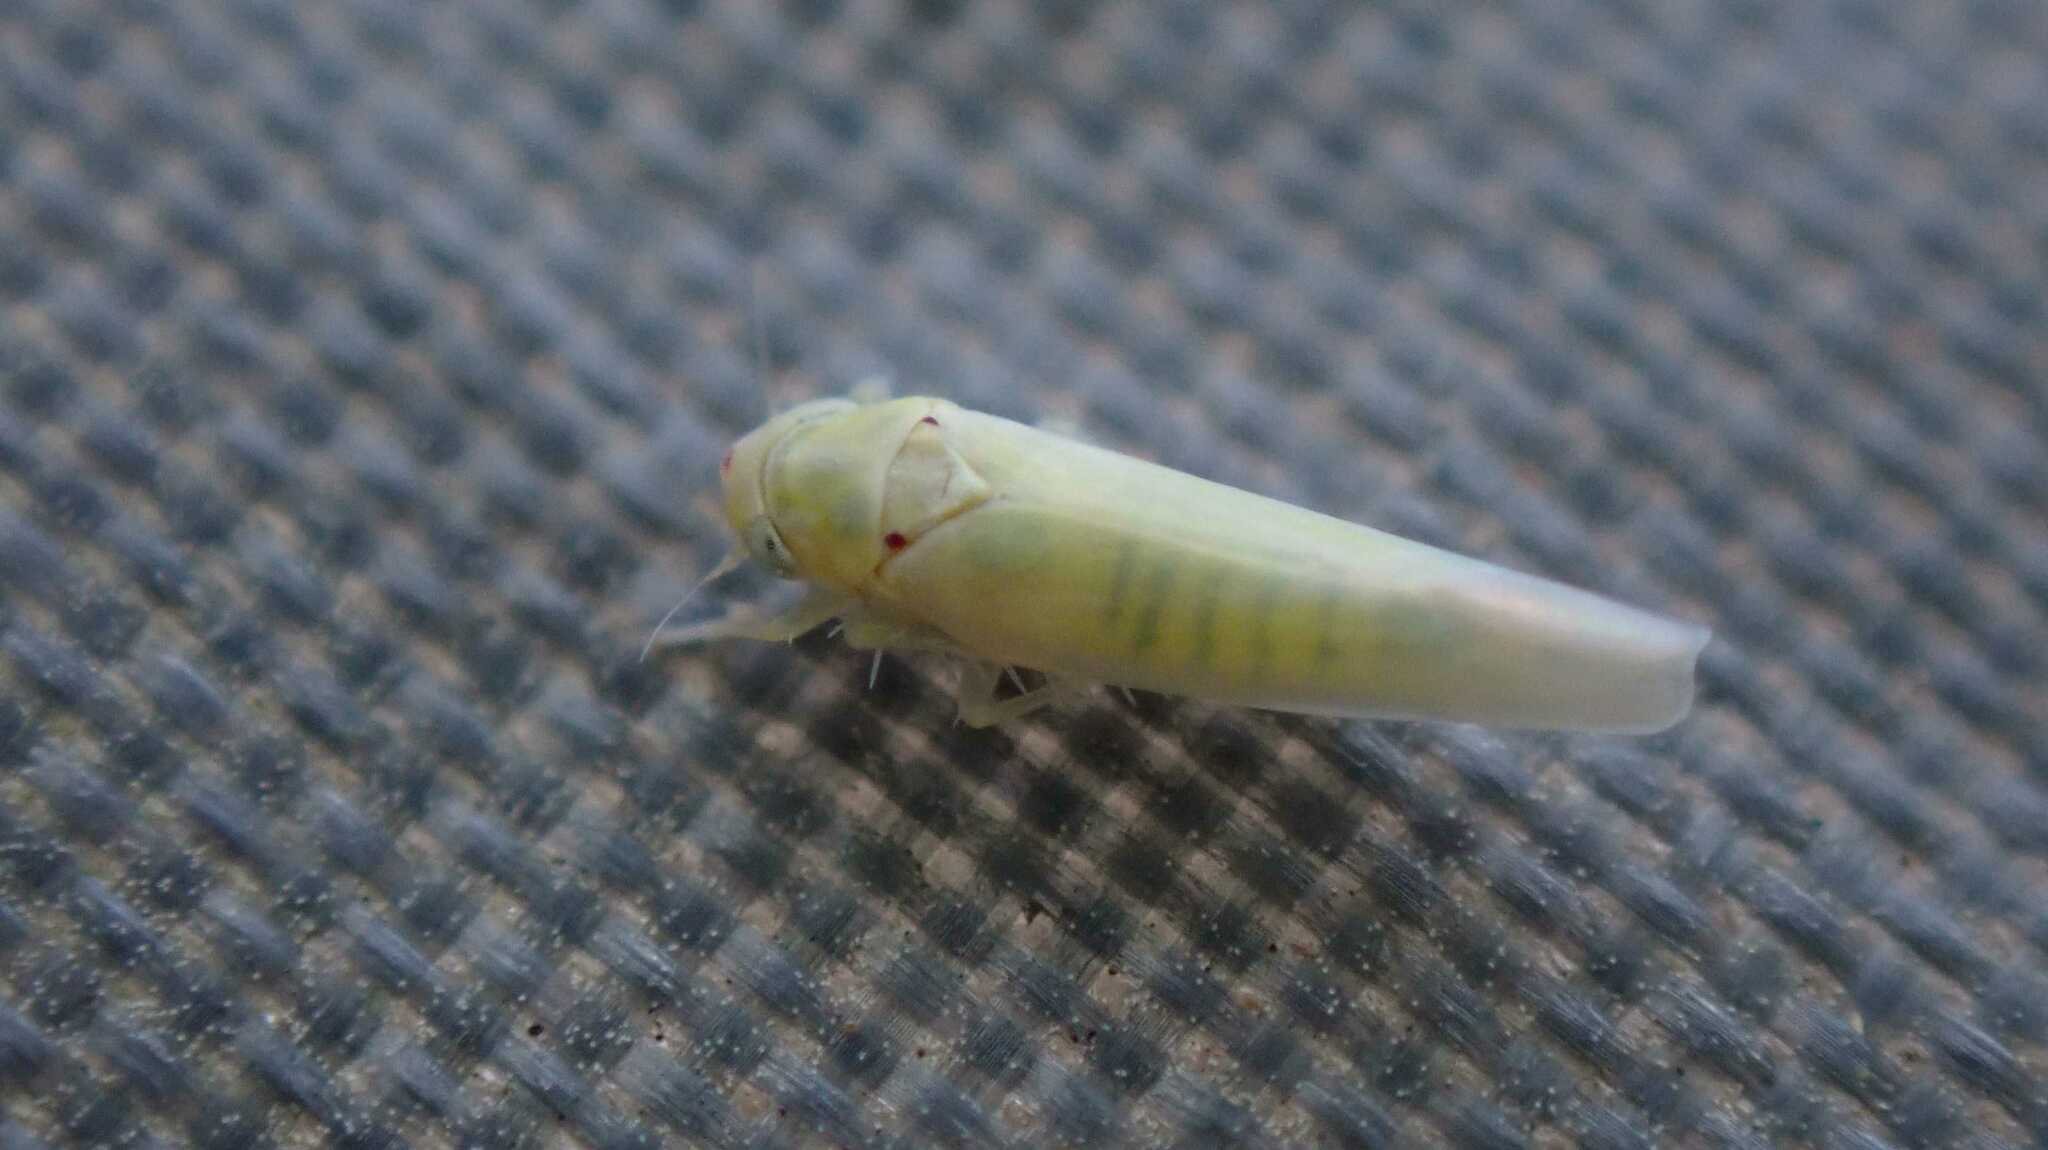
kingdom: Animalia
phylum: Arthropoda
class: Insecta
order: Hemiptera
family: Cicadellidae
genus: Zygina
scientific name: Zygina nivea
